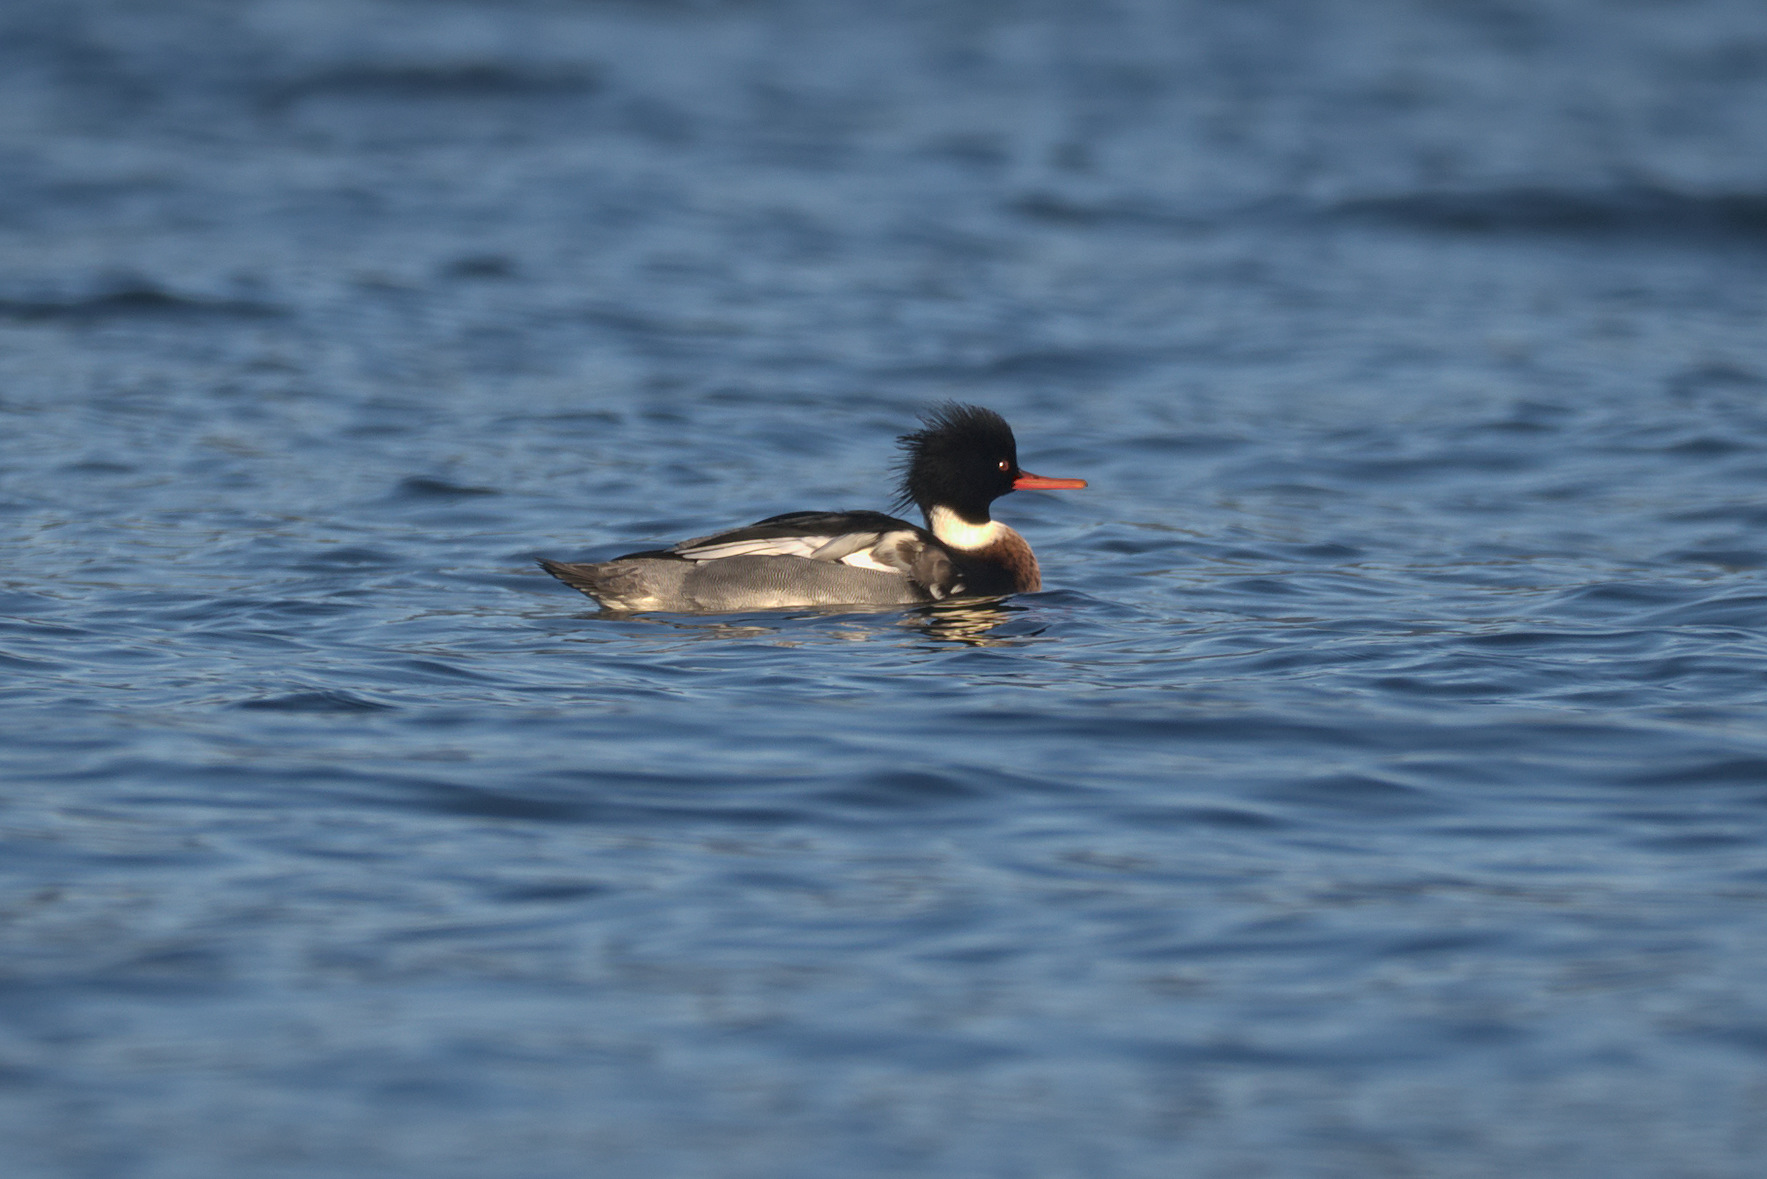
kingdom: Animalia
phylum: Chordata
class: Aves
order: Anseriformes
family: Anatidae
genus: Mergus
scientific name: Mergus serrator
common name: Red-breasted merganser
